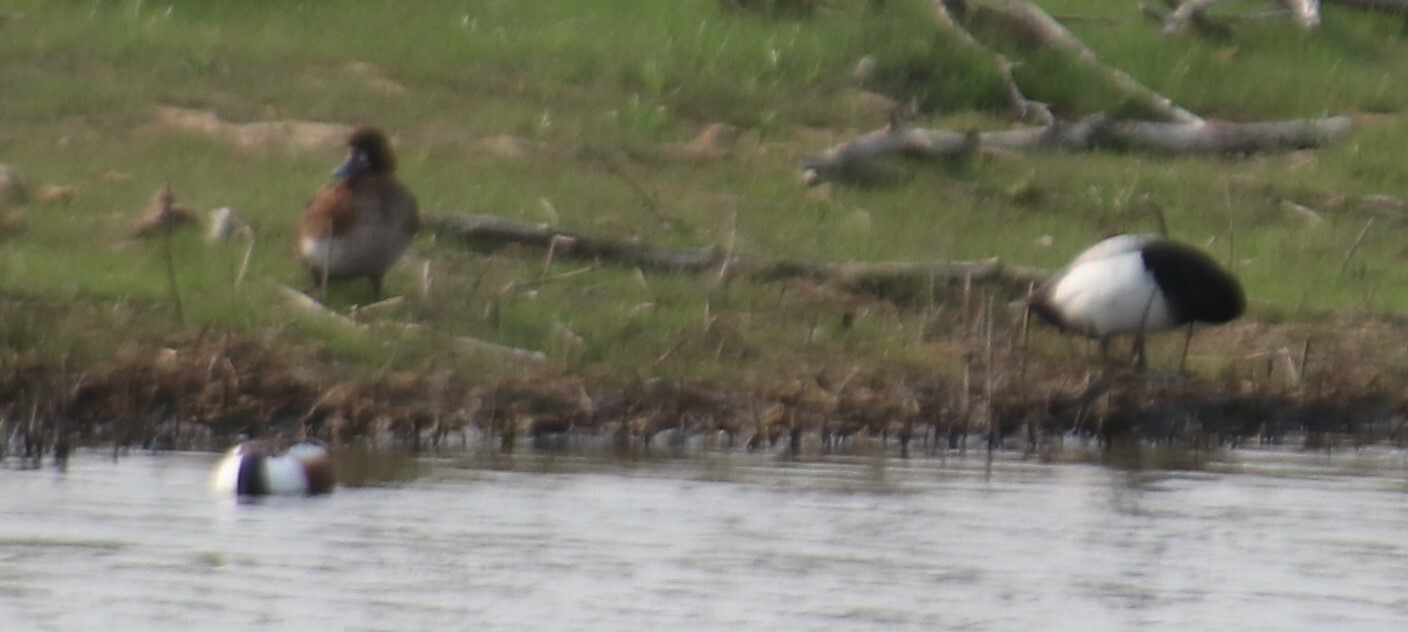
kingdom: Animalia
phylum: Chordata
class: Aves
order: Anseriformes
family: Anatidae
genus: Spatula
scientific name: Spatula clypeata
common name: Northern shoveler
